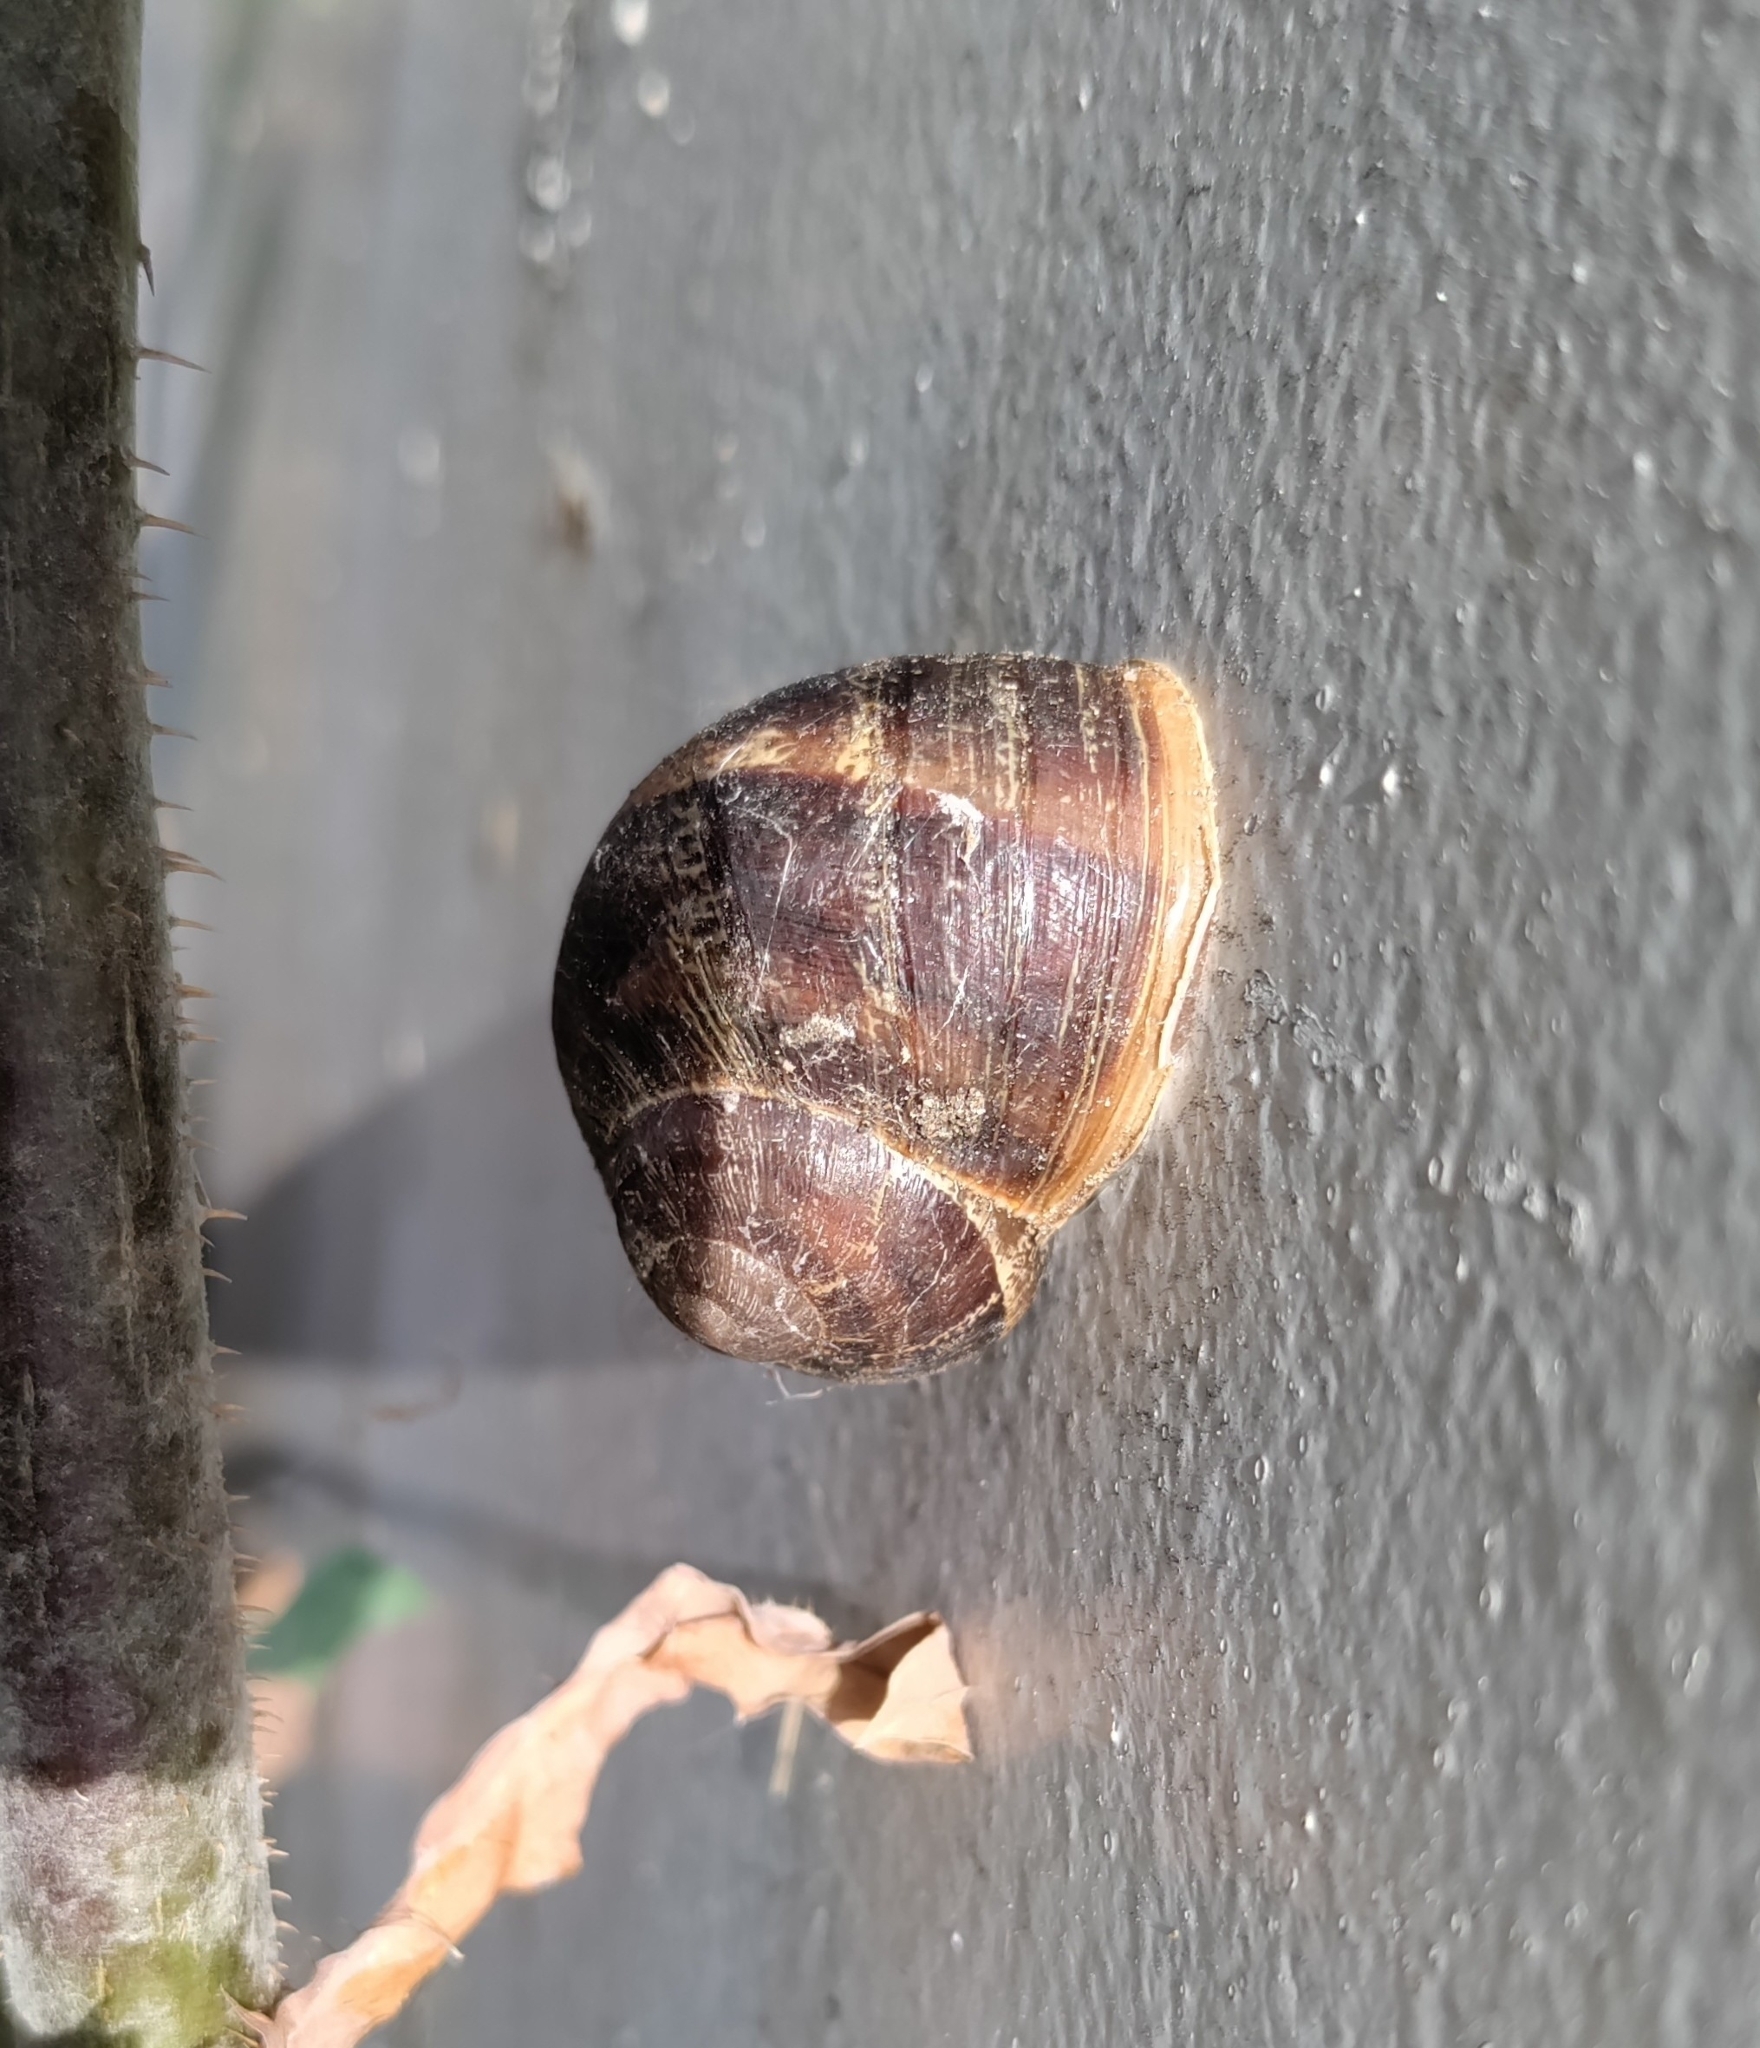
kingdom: Animalia
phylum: Mollusca
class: Gastropoda
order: Stylommatophora
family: Helicidae
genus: Cornu
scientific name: Cornu aspersum
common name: Brown garden snail
